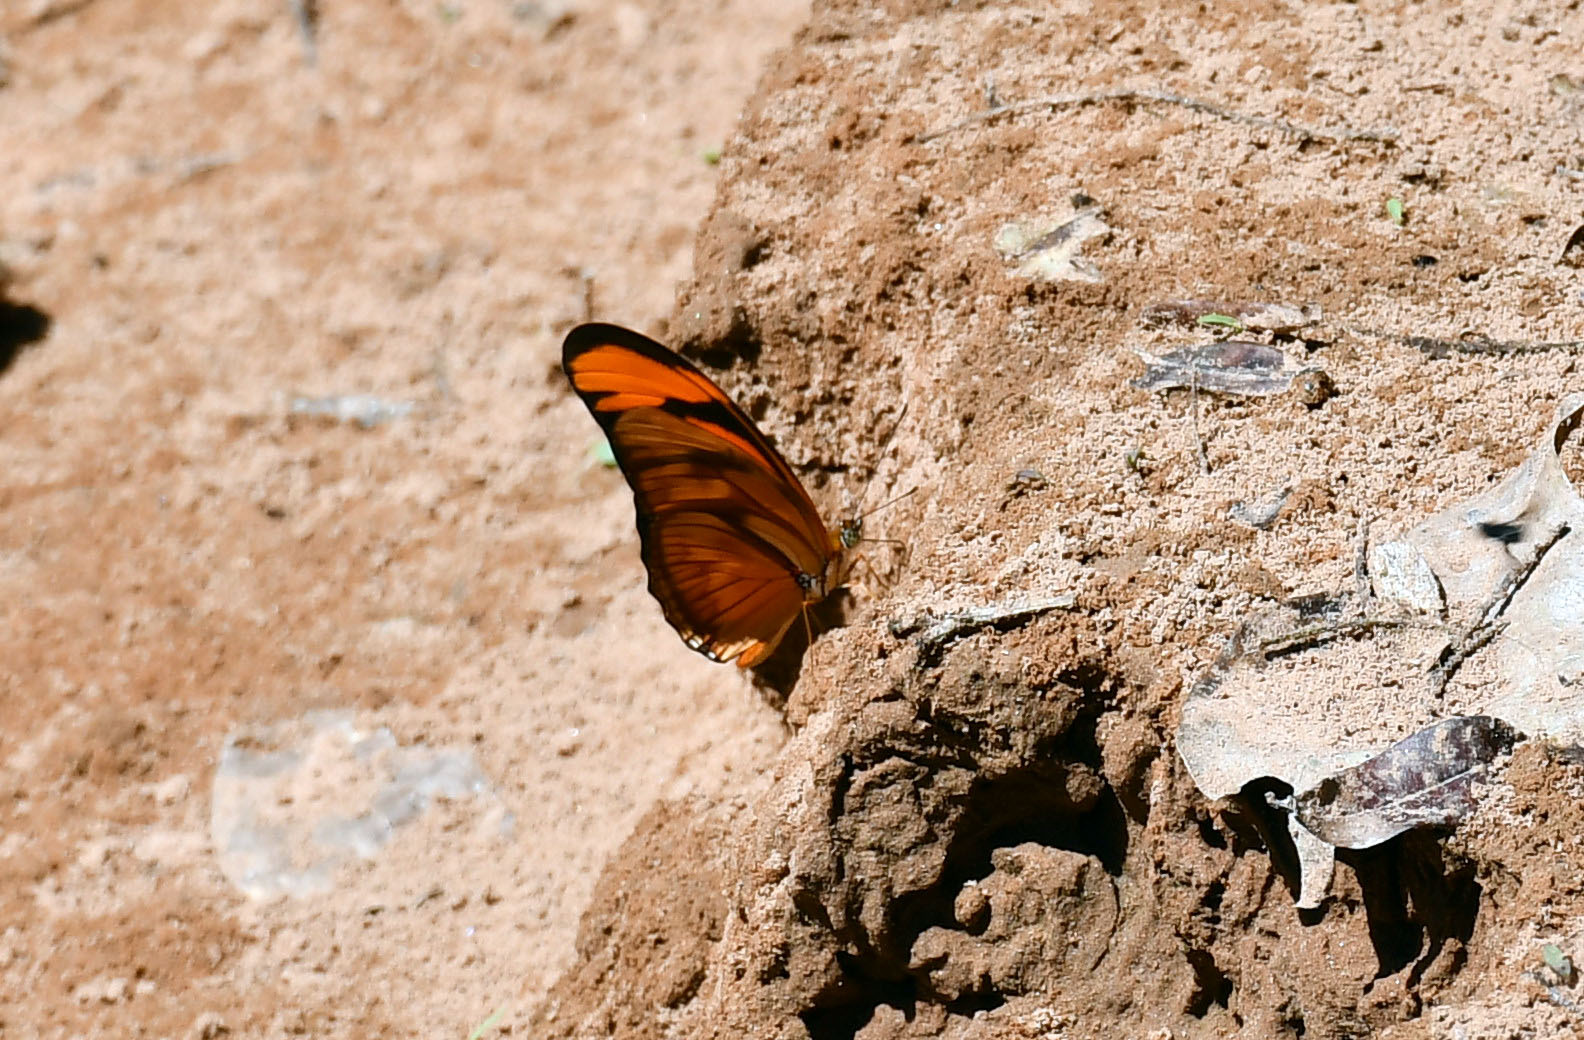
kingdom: Animalia
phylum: Arthropoda
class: Insecta
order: Lepidoptera
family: Nymphalidae
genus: Dryas
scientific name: Dryas iulia
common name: Flambeau
